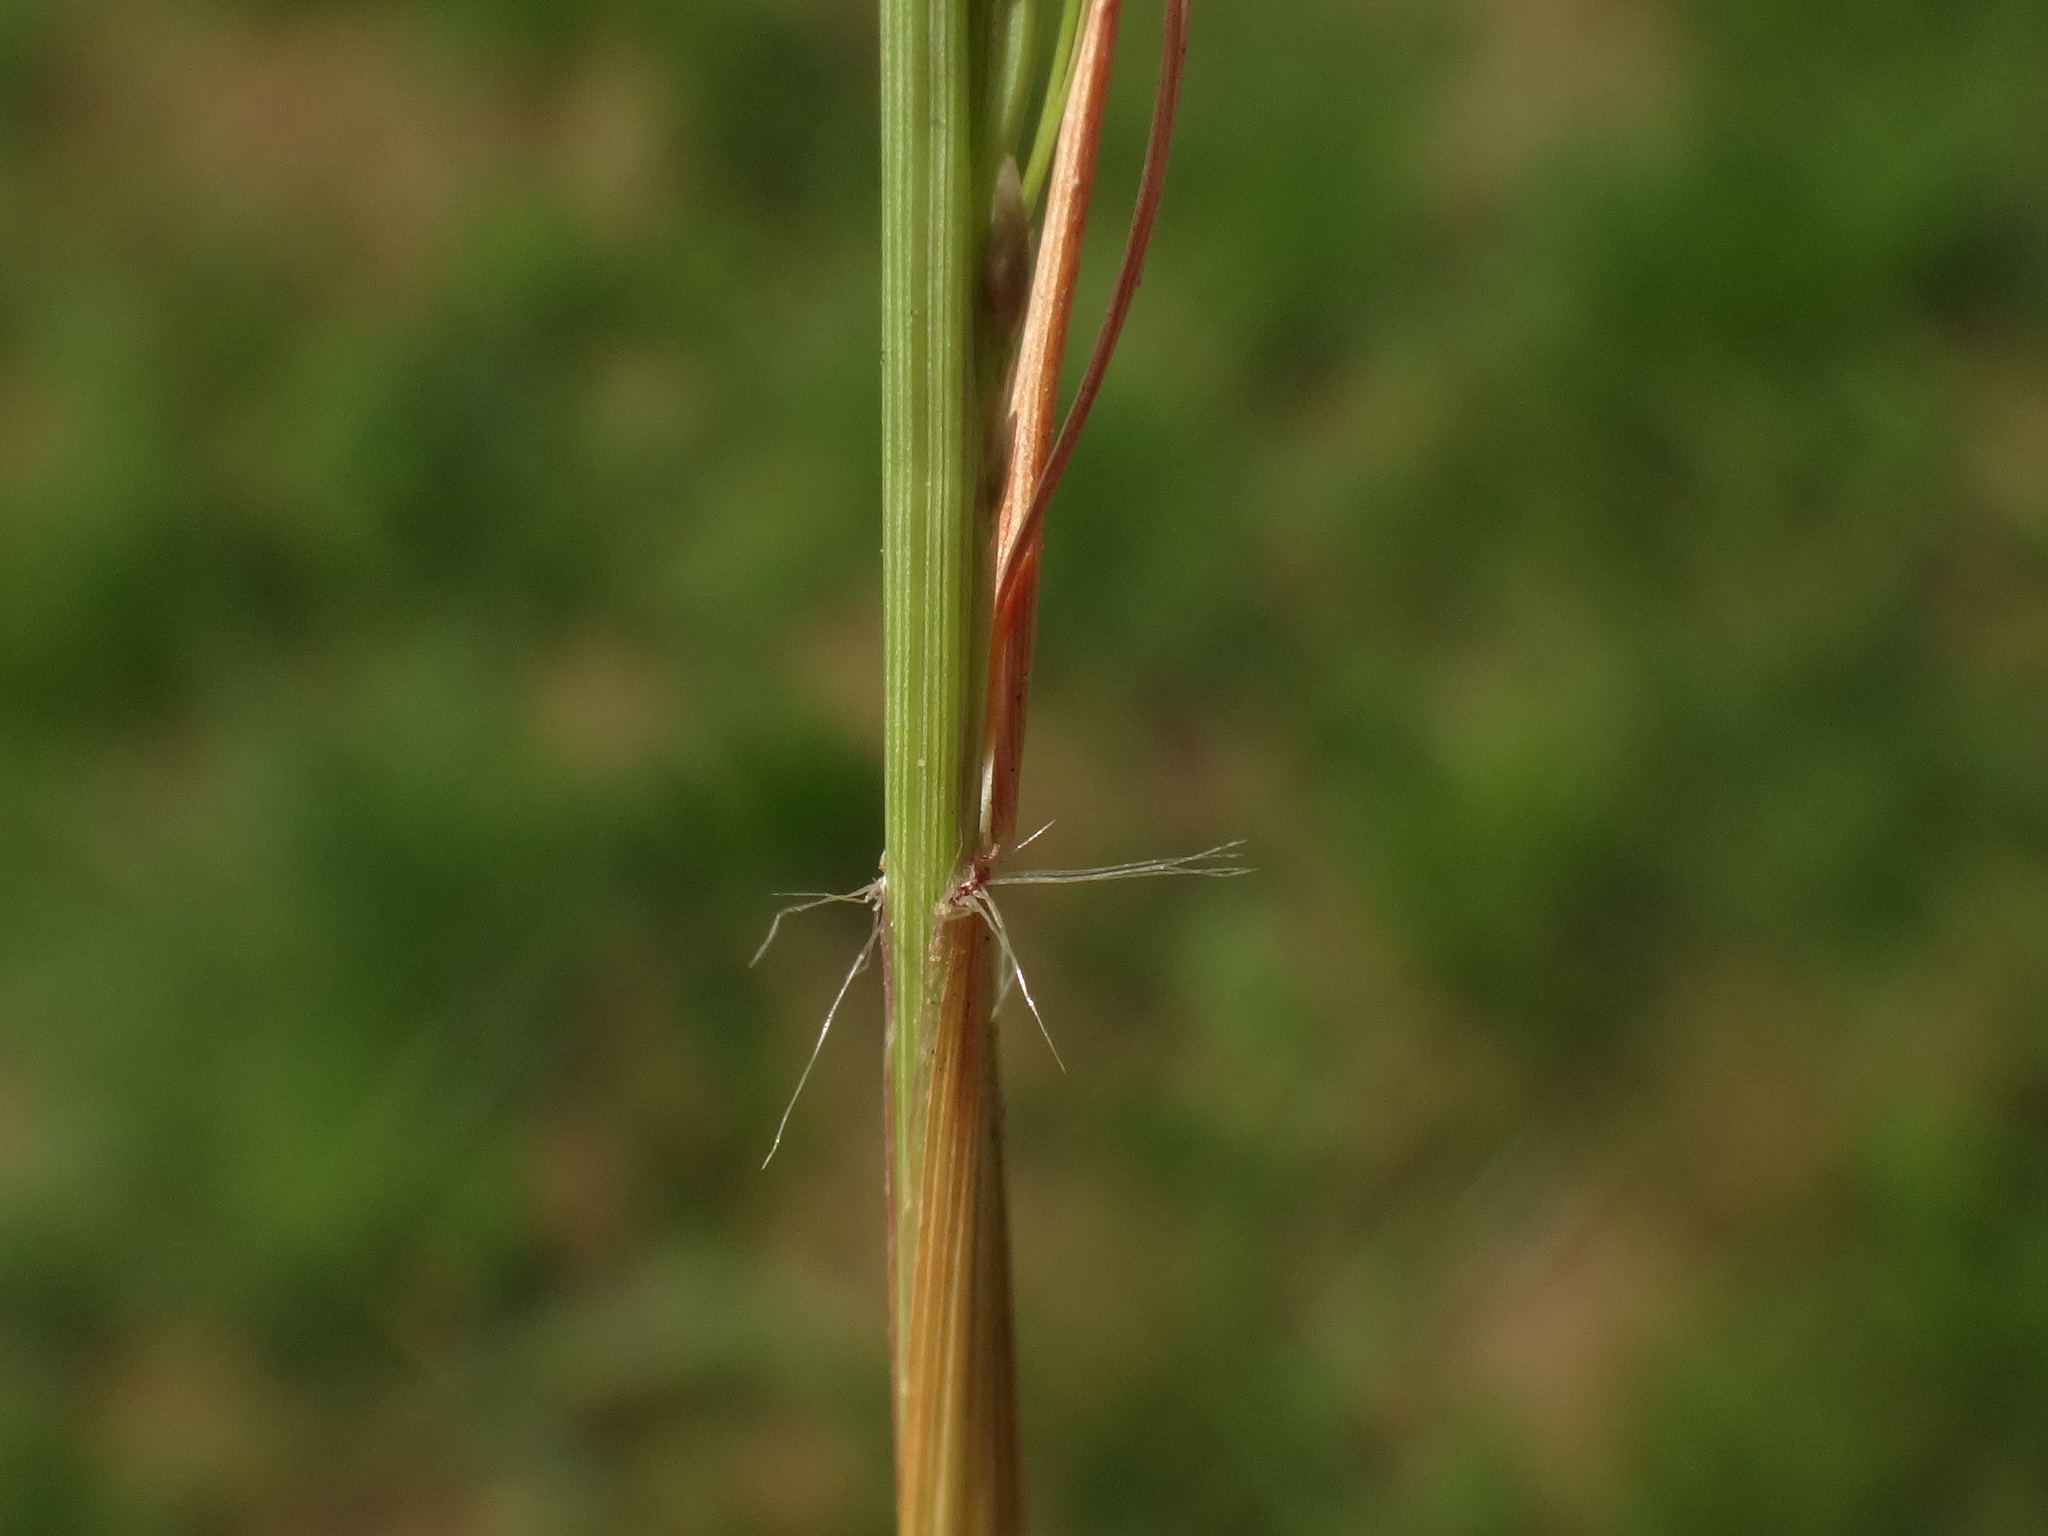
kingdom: Plantae
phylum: Tracheophyta
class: Liliopsida
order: Poales
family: Poaceae
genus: Eragrostis
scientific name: Eragrostis pilosa
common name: Indian lovegrass
